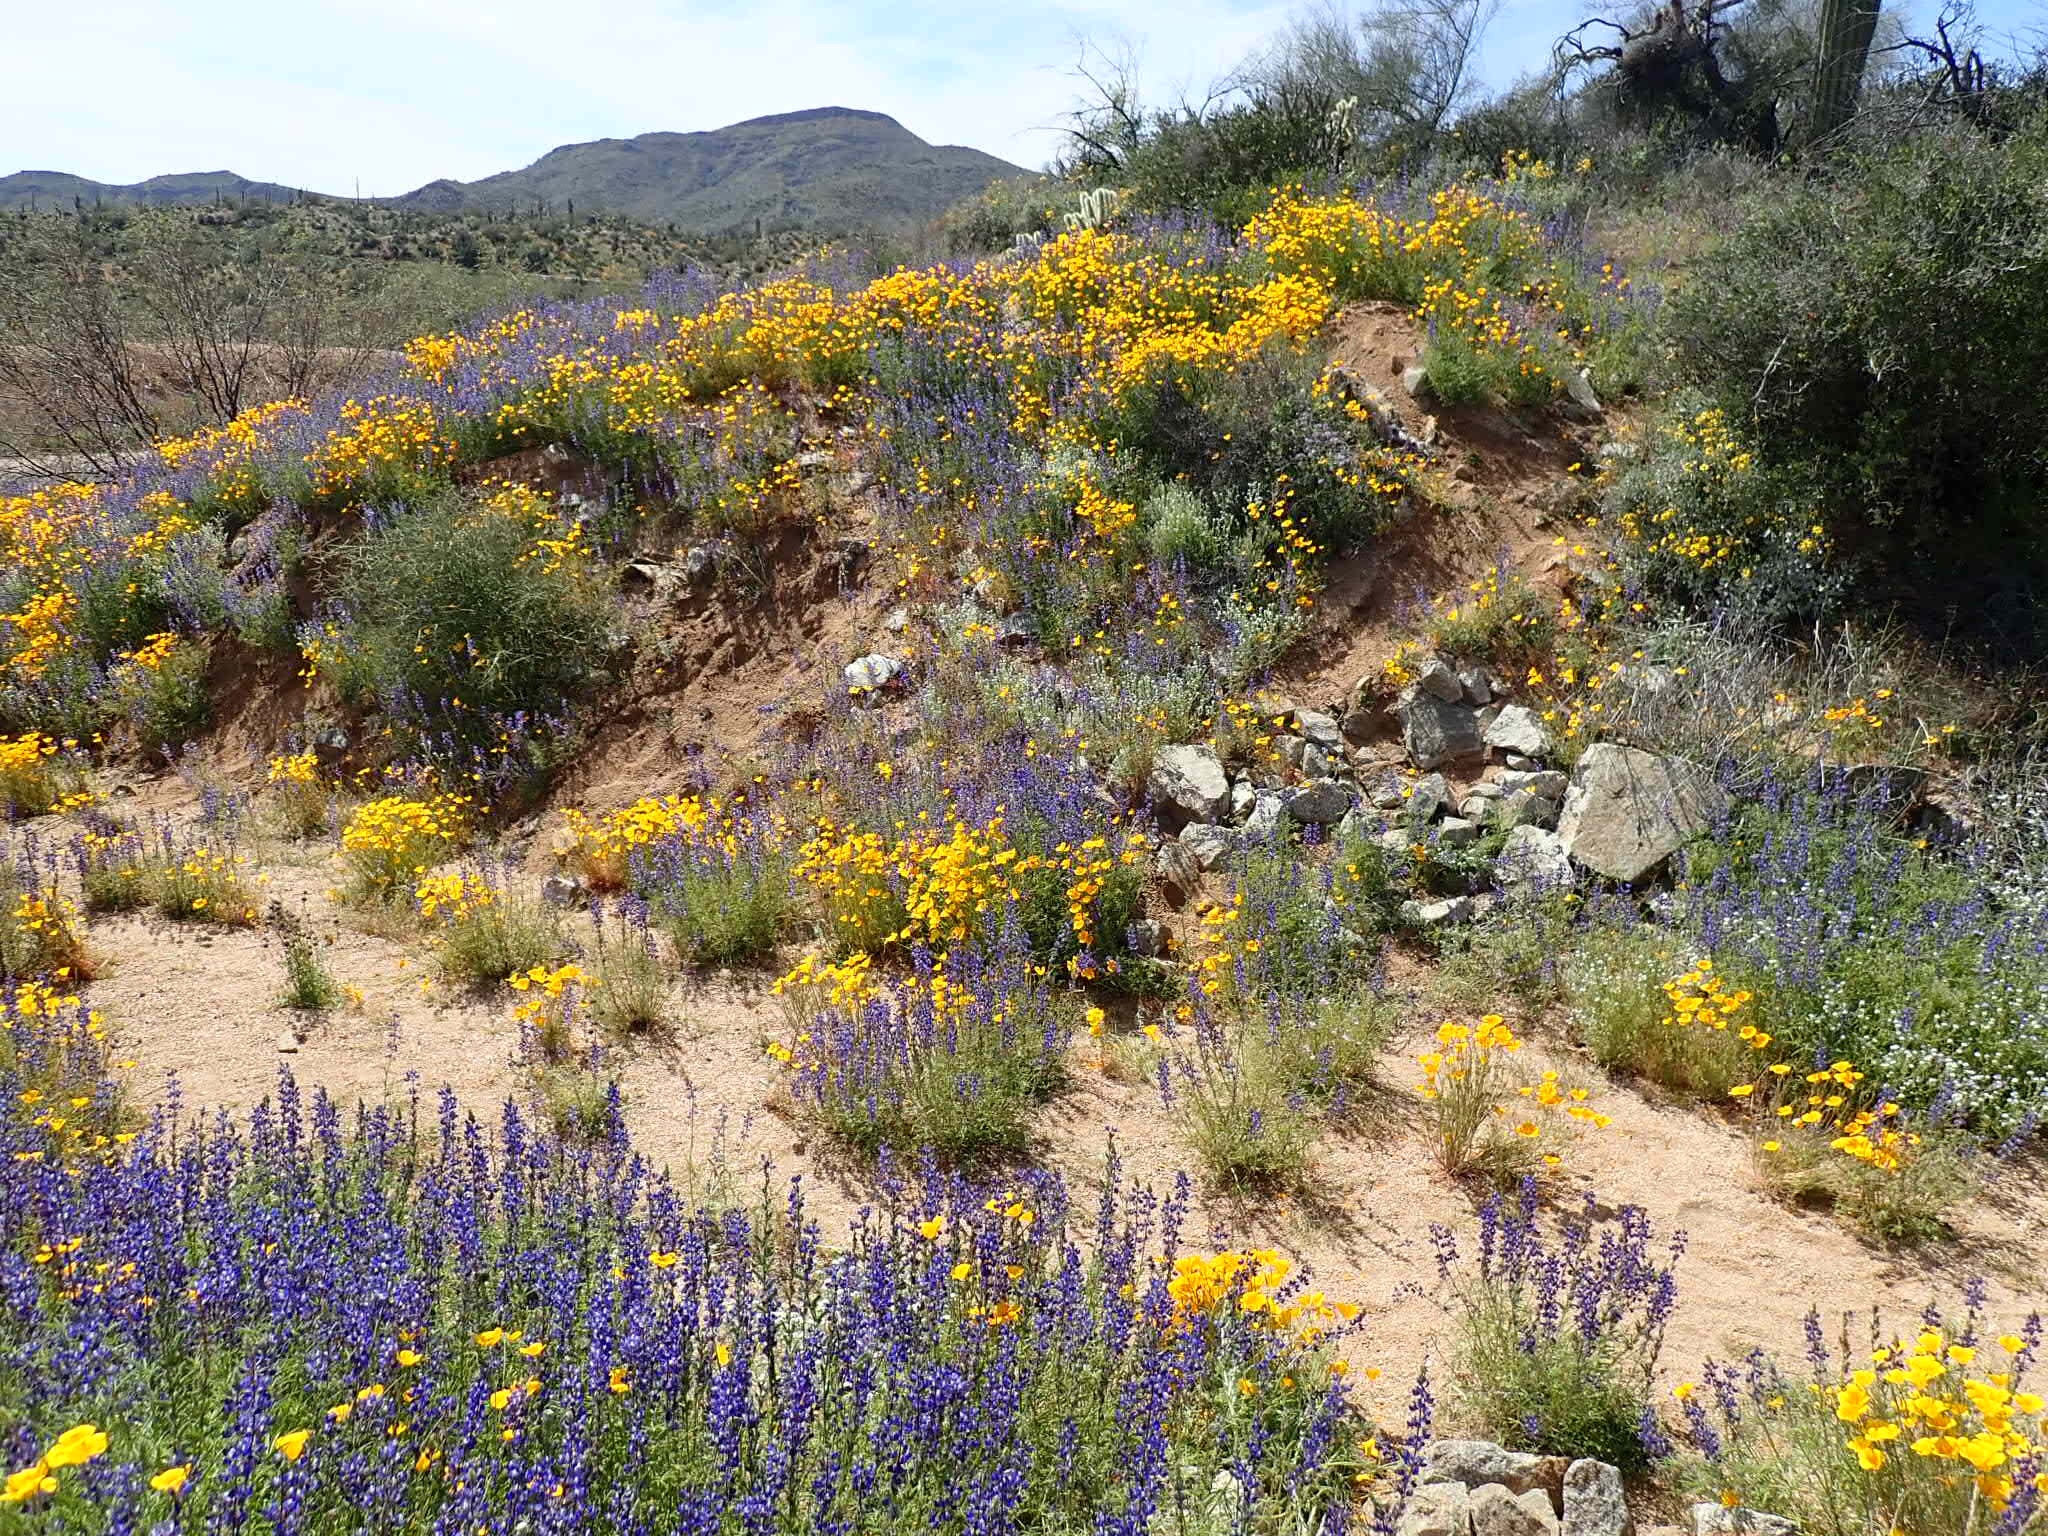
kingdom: Plantae
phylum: Tracheophyta
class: Magnoliopsida
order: Lamiales
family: Lamiaceae
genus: Salvia
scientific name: Salvia columbariae
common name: Chia
